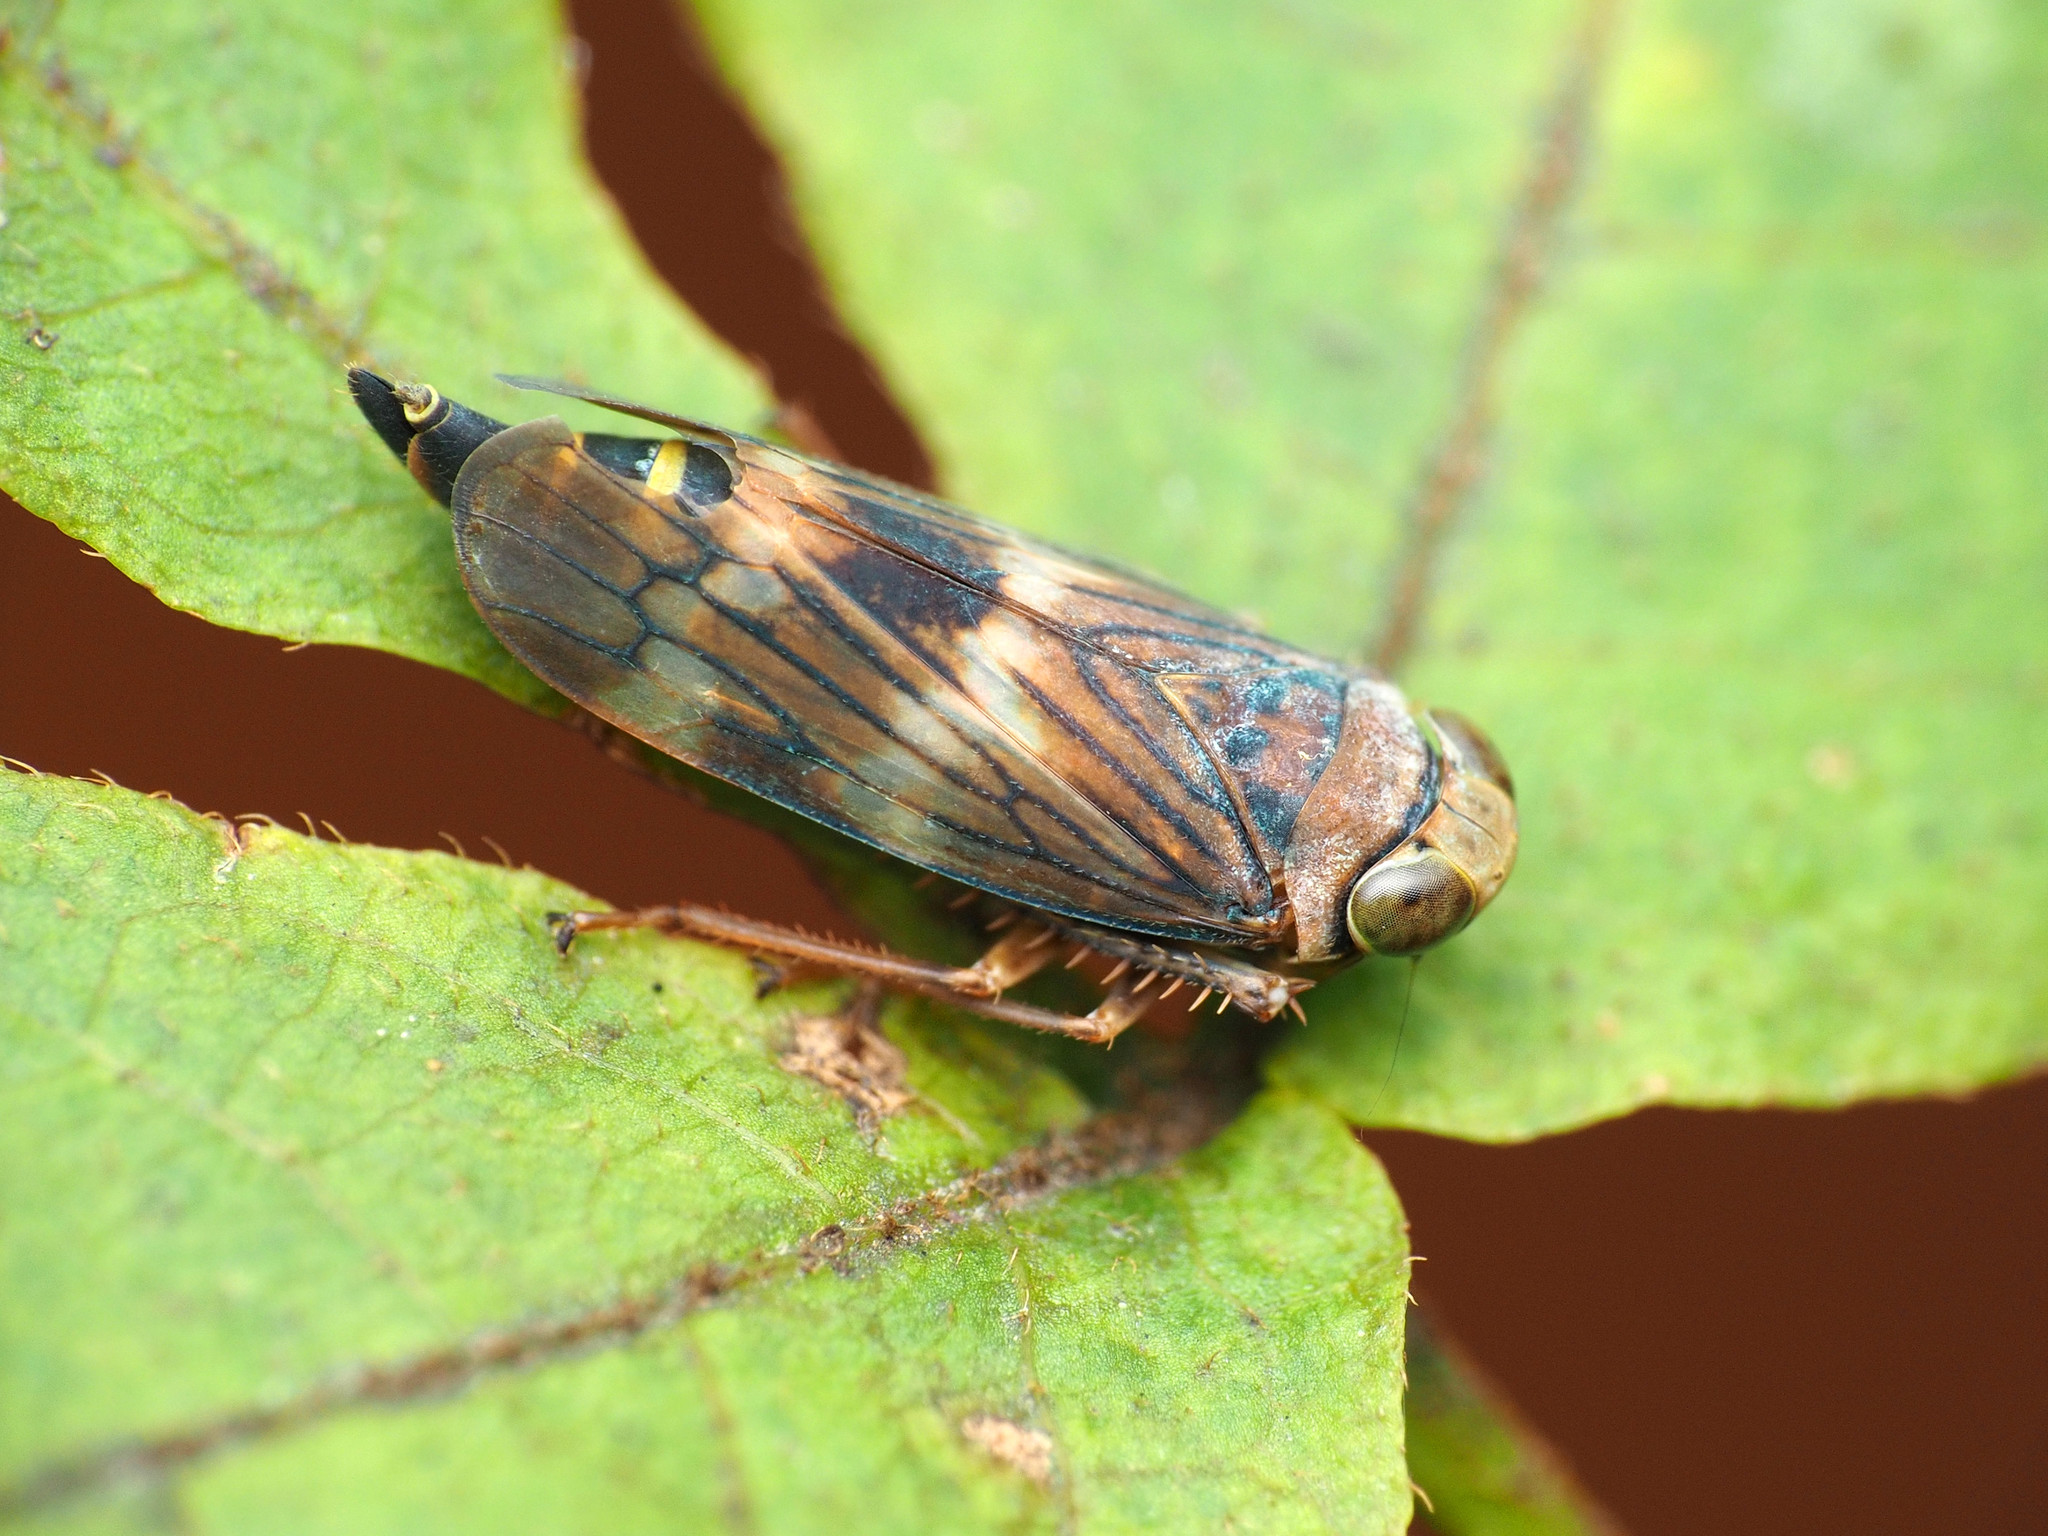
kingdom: Animalia
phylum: Arthropoda
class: Insecta
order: Hemiptera
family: Cicadellidae
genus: Jikradia
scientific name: Jikradia olitoria
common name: Coppery leafhopper
